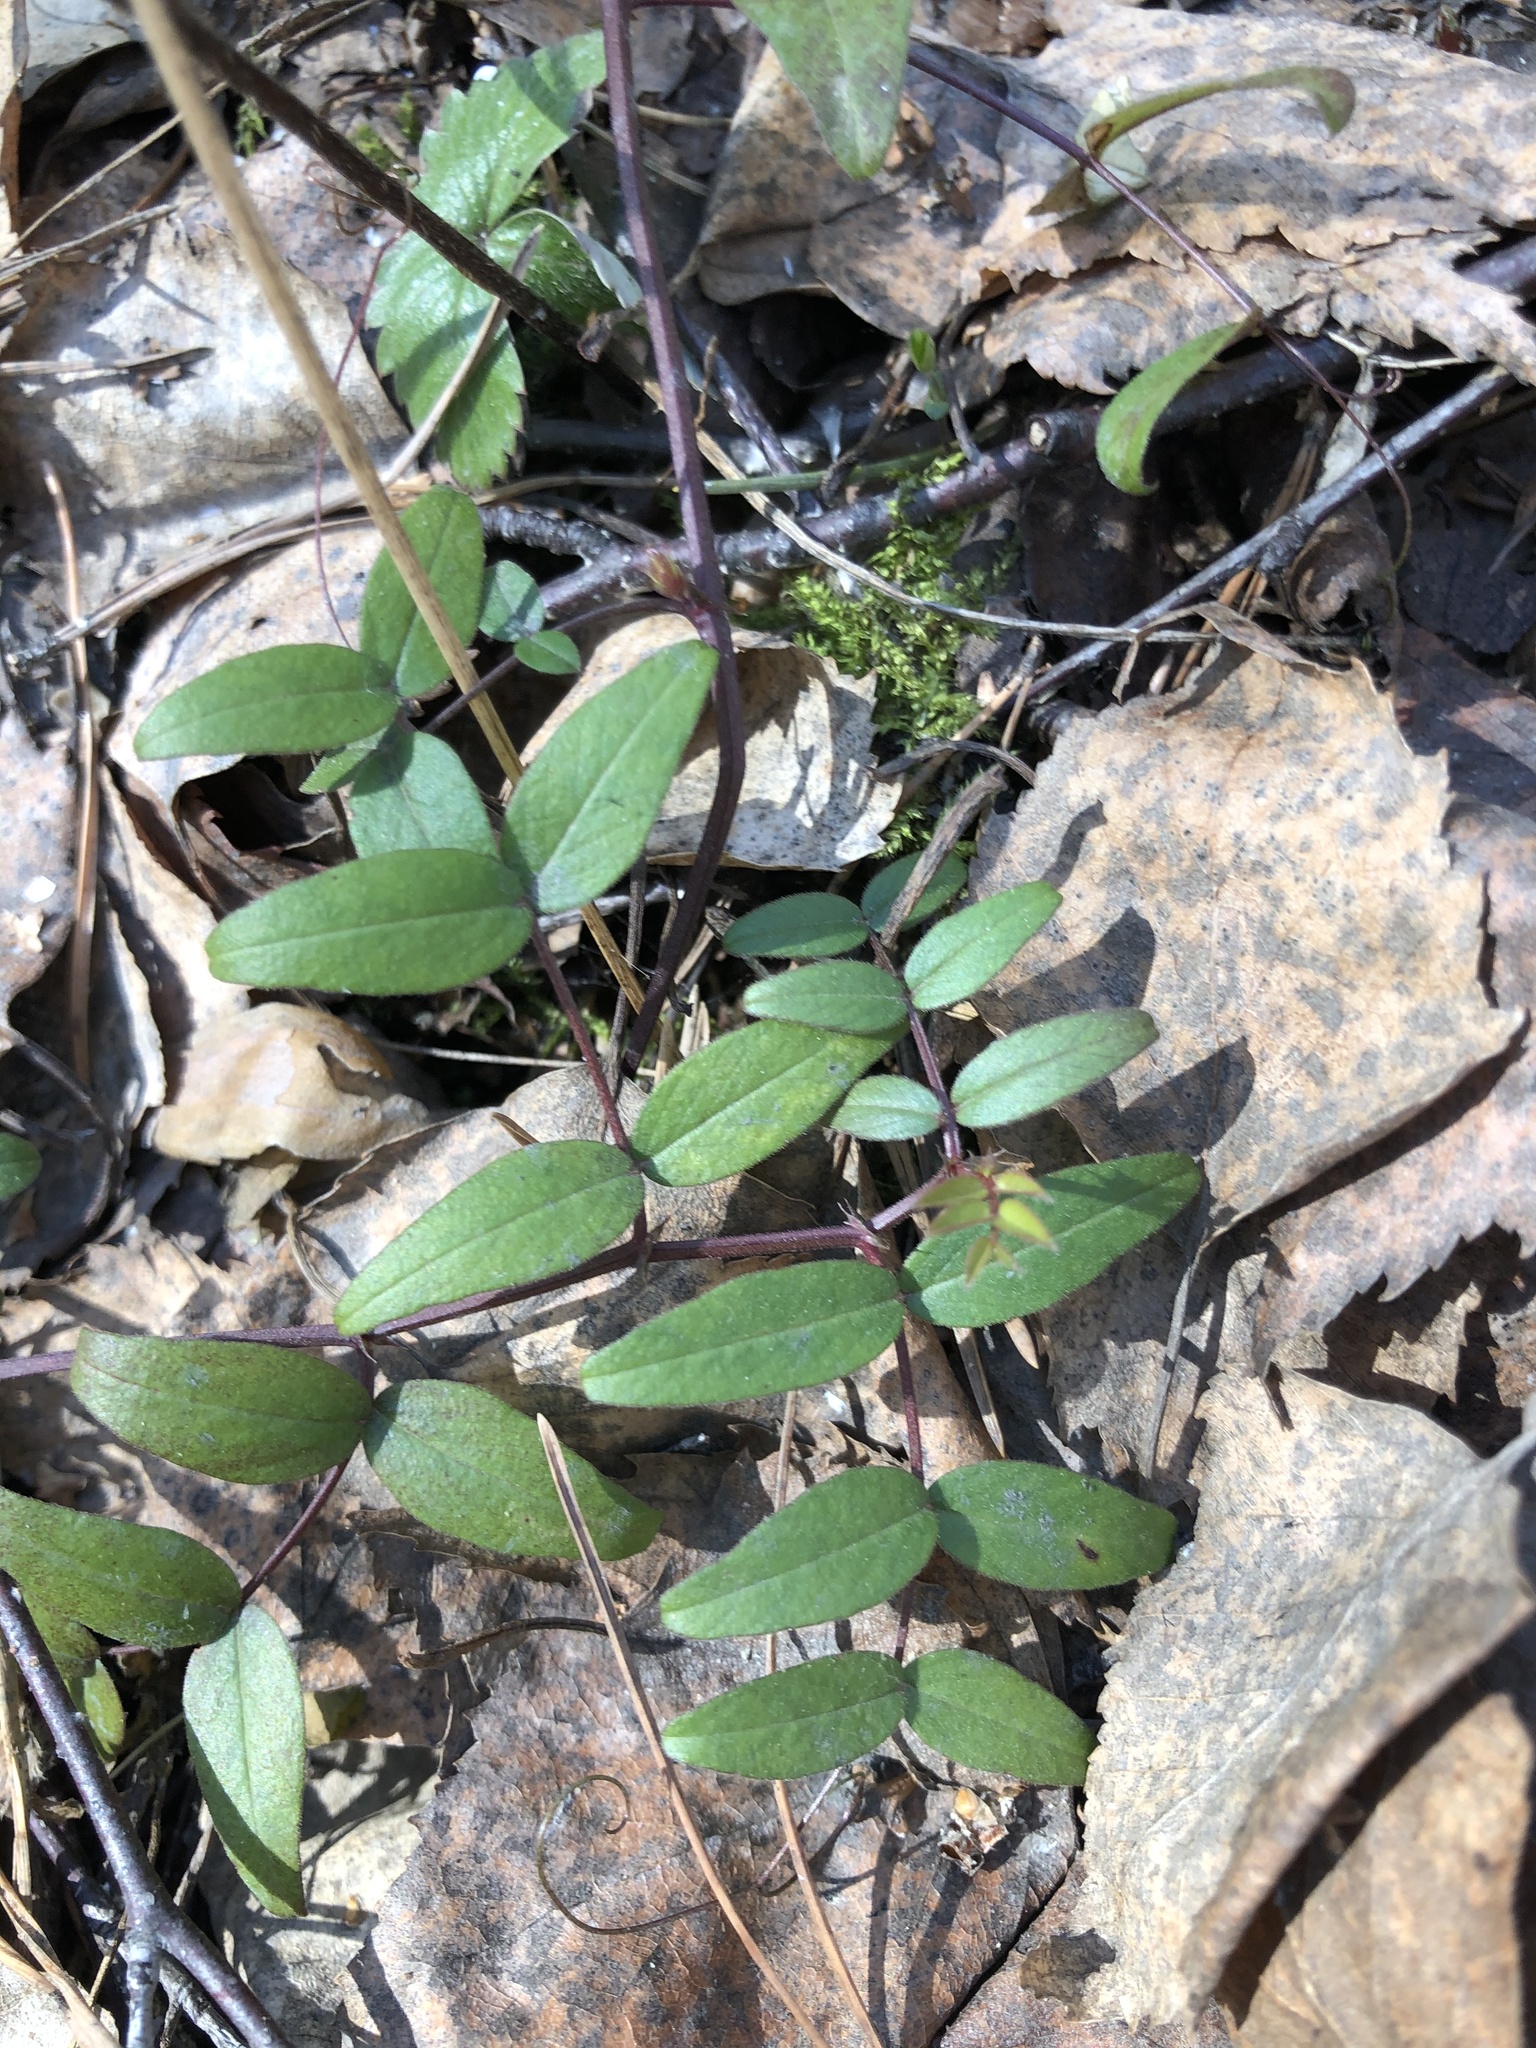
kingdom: Plantae
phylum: Tracheophyta
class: Magnoliopsida
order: Fabales
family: Fabaceae
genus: Vicia
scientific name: Vicia sepium
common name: Bush vetch
